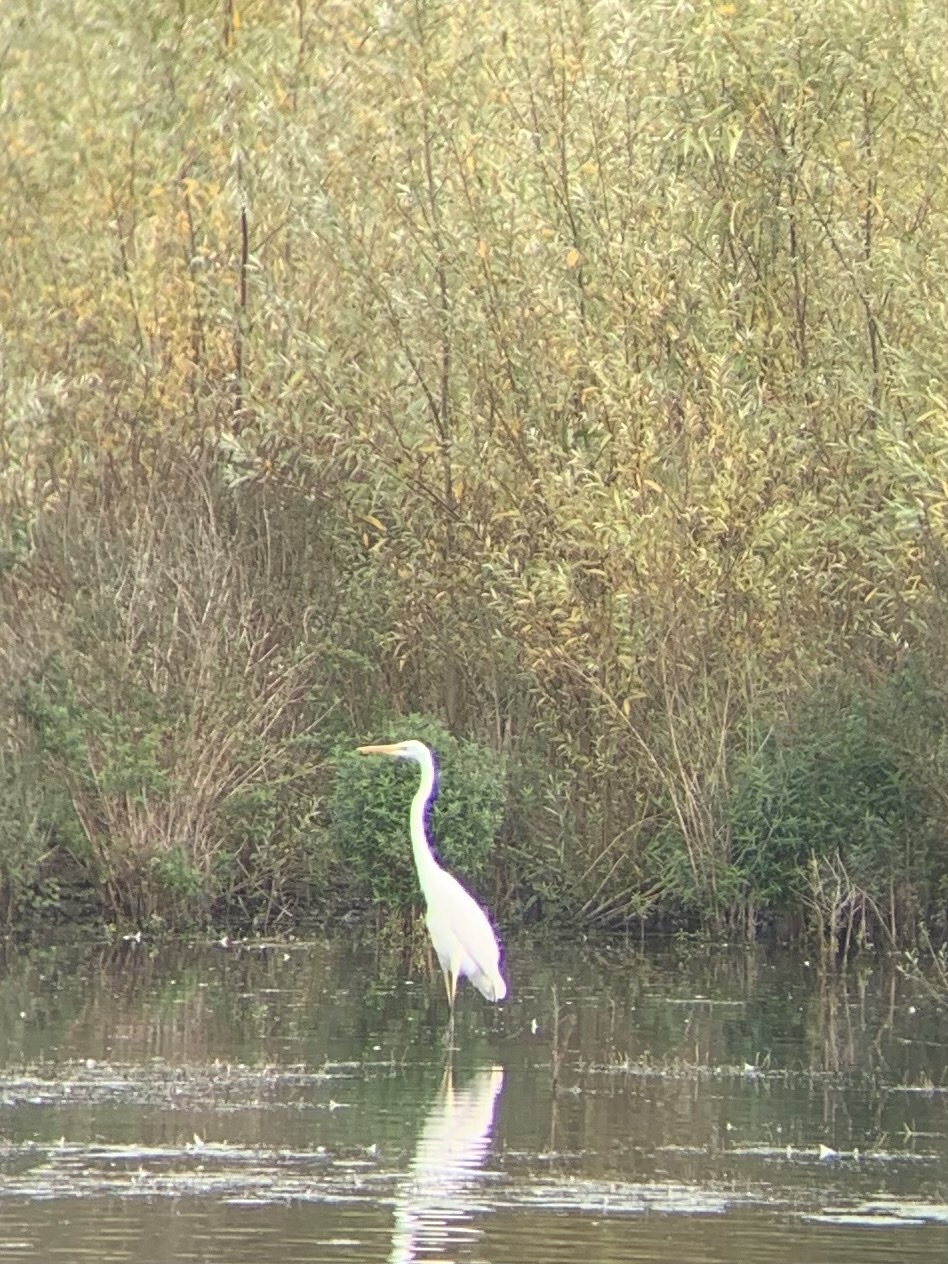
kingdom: Animalia
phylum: Chordata
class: Aves
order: Pelecaniformes
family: Ardeidae
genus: Ardea
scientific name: Ardea alba
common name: Great egret
